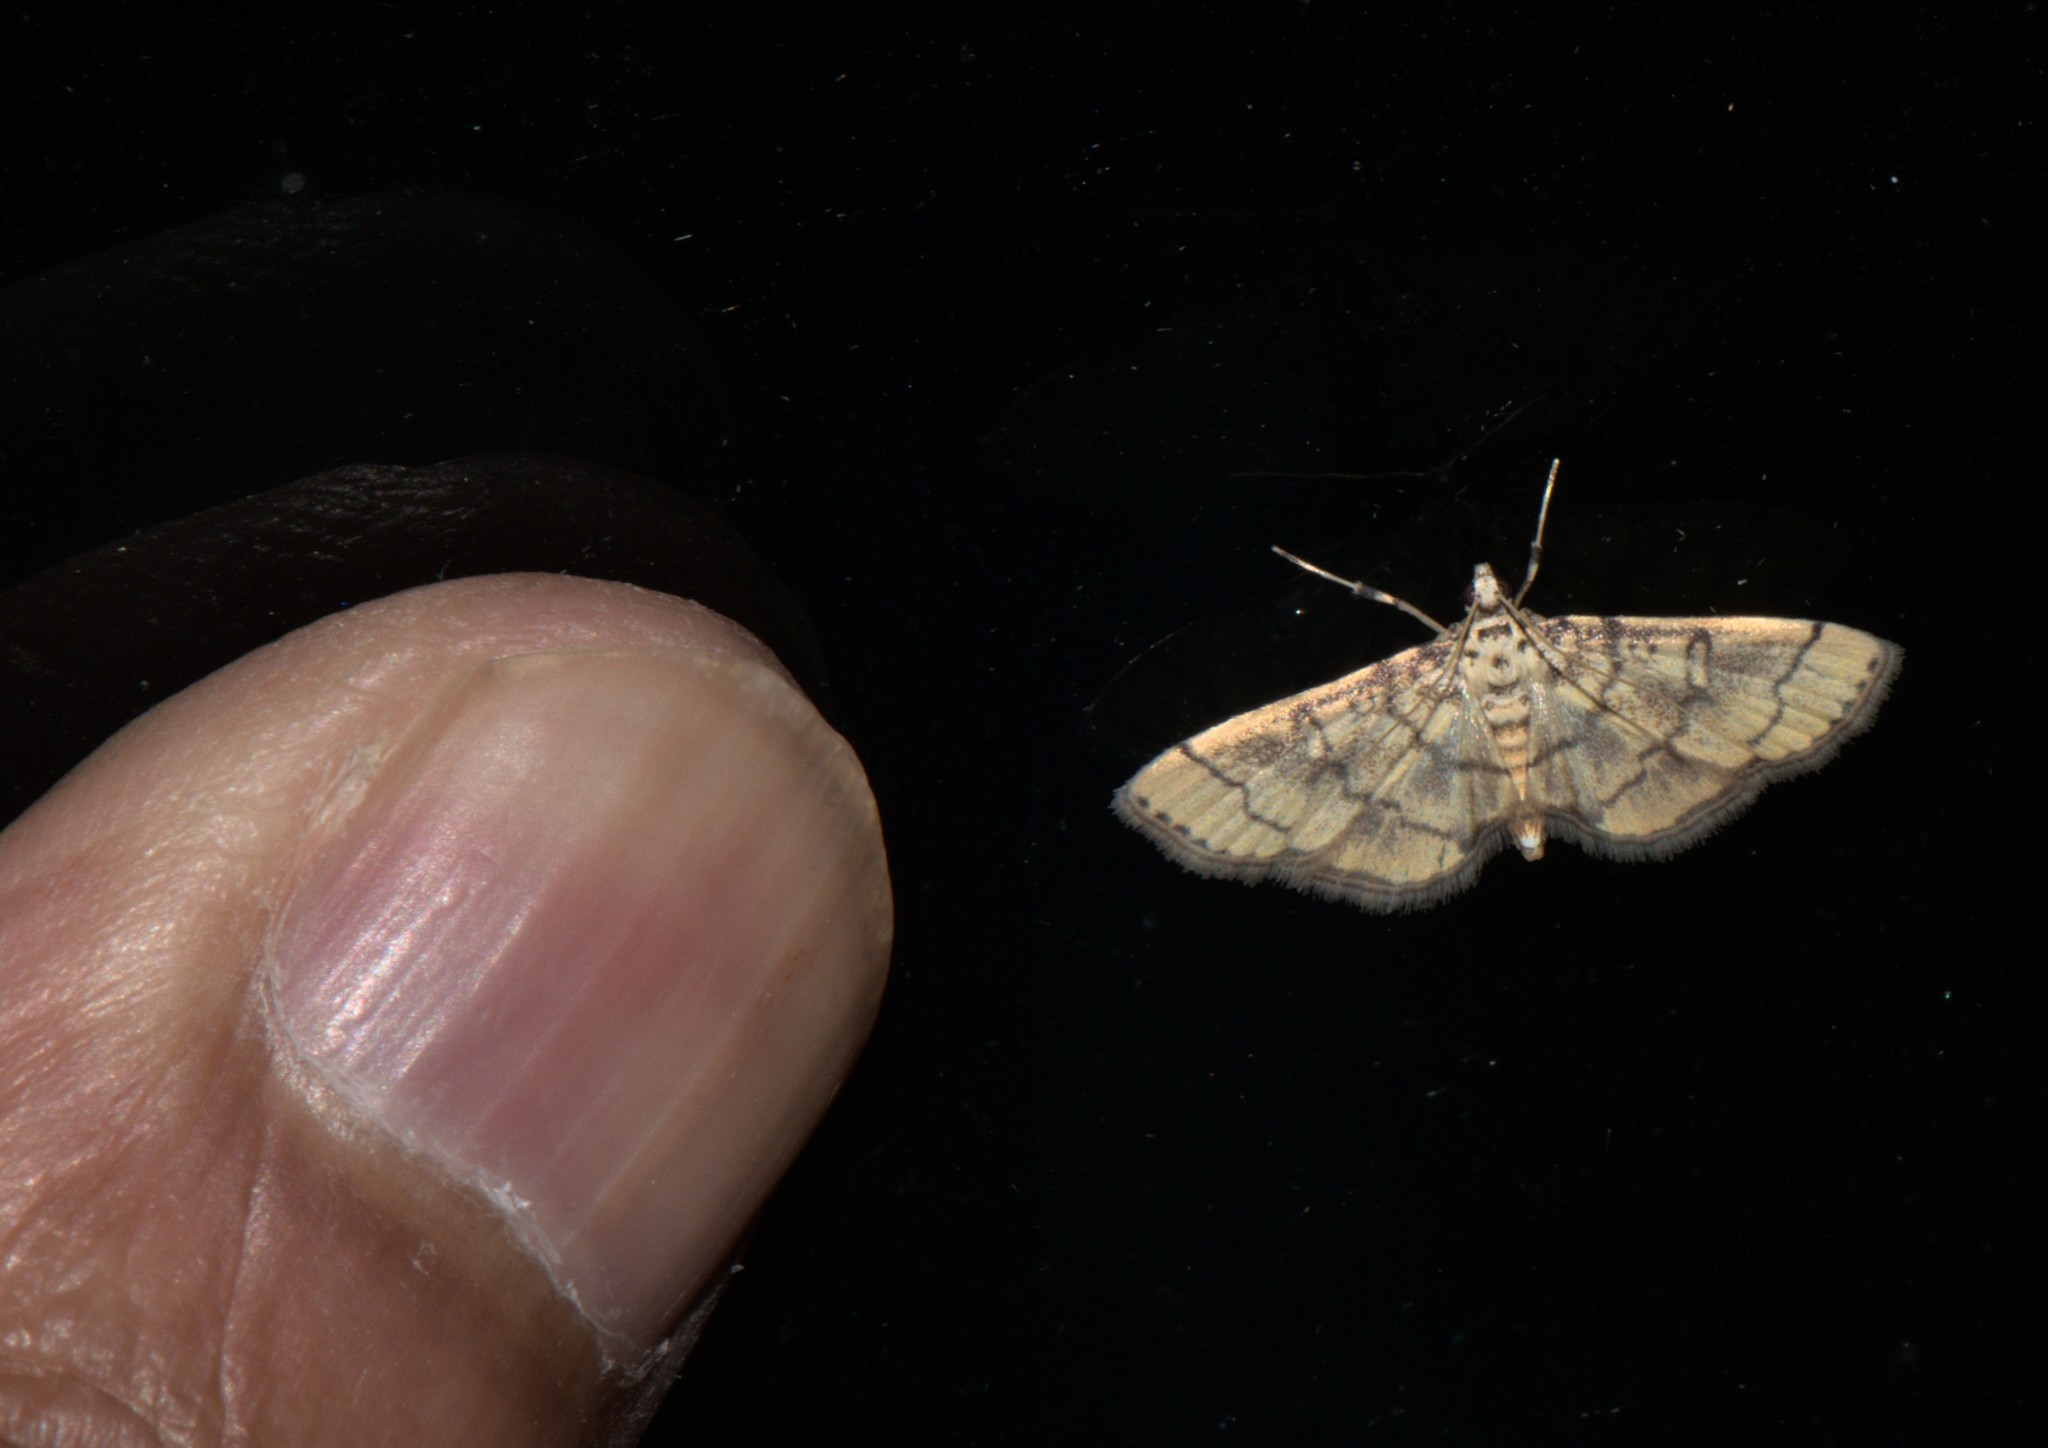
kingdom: Animalia
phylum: Arthropoda
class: Insecta
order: Lepidoptera
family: Crambidae
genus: Lamprosema
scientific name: Lamprosema tampiusalis
